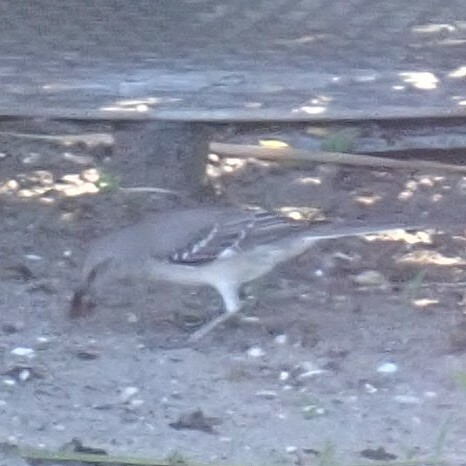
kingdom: Animalia
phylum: Chordata
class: Aves
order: Passeriformes
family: Mimidae
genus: Mimus
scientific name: Mimus polyglottos
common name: Northern mockingbird
